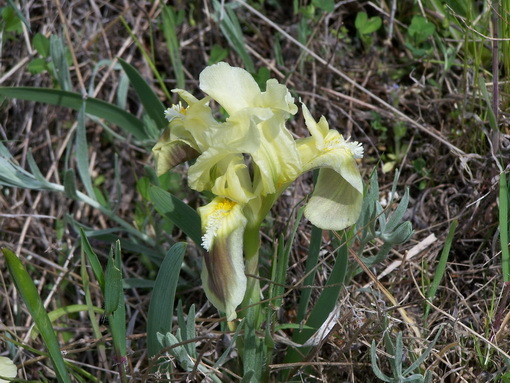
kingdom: Plantae
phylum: Tracheophyta
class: Liliopsida
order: Asparagales
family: Iridaceae
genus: Iris
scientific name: Iris pumila
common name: Dwarf iris
